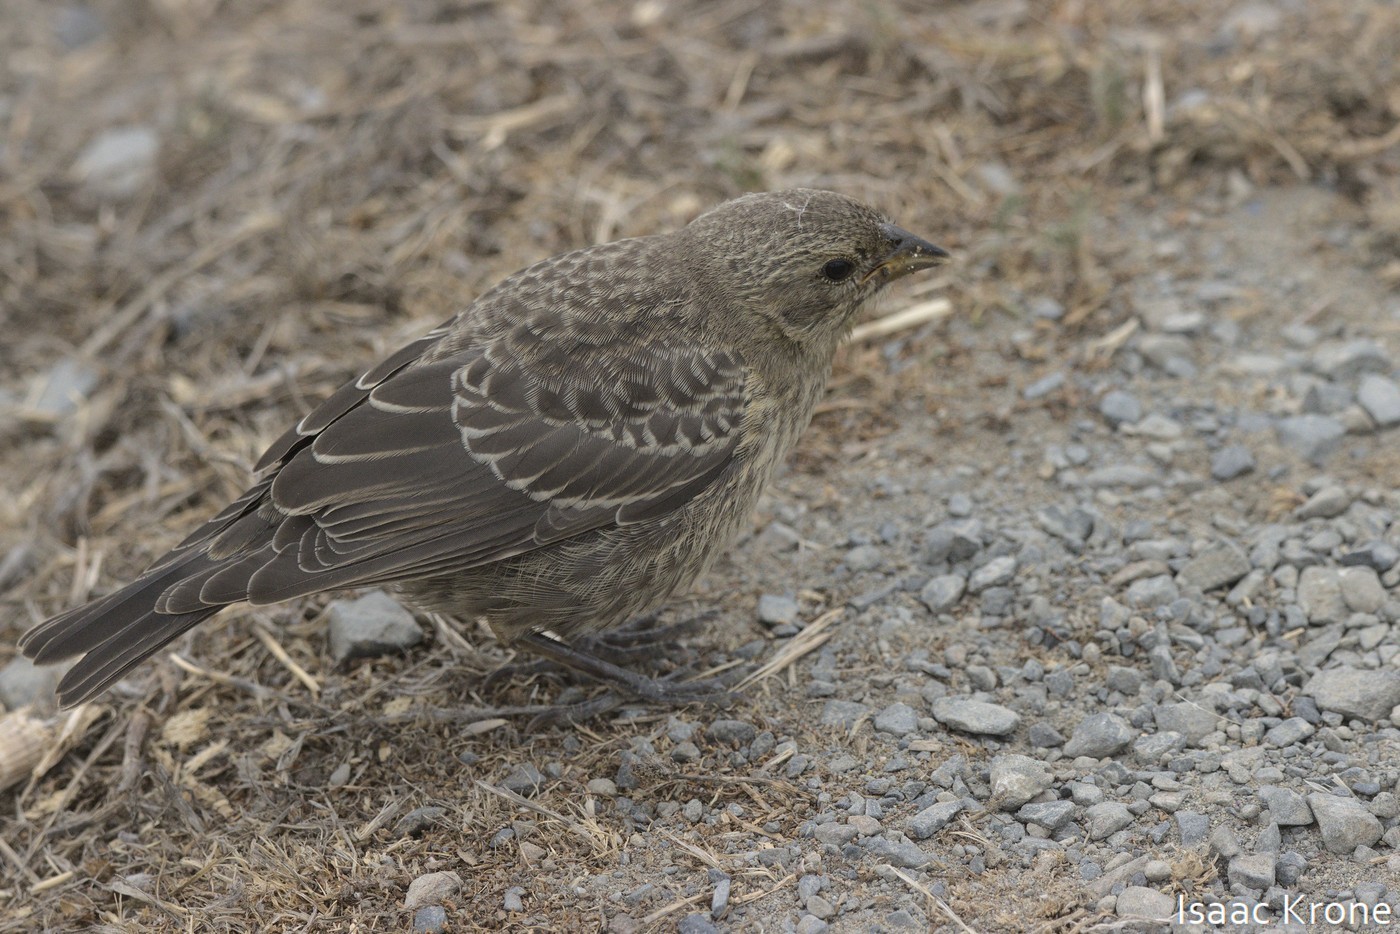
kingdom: Animalia
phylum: Chordata
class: Aves
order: Passeriformes
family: Icteridae
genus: Molothrus
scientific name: Molothrus ater
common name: Brown-headed cowbird
